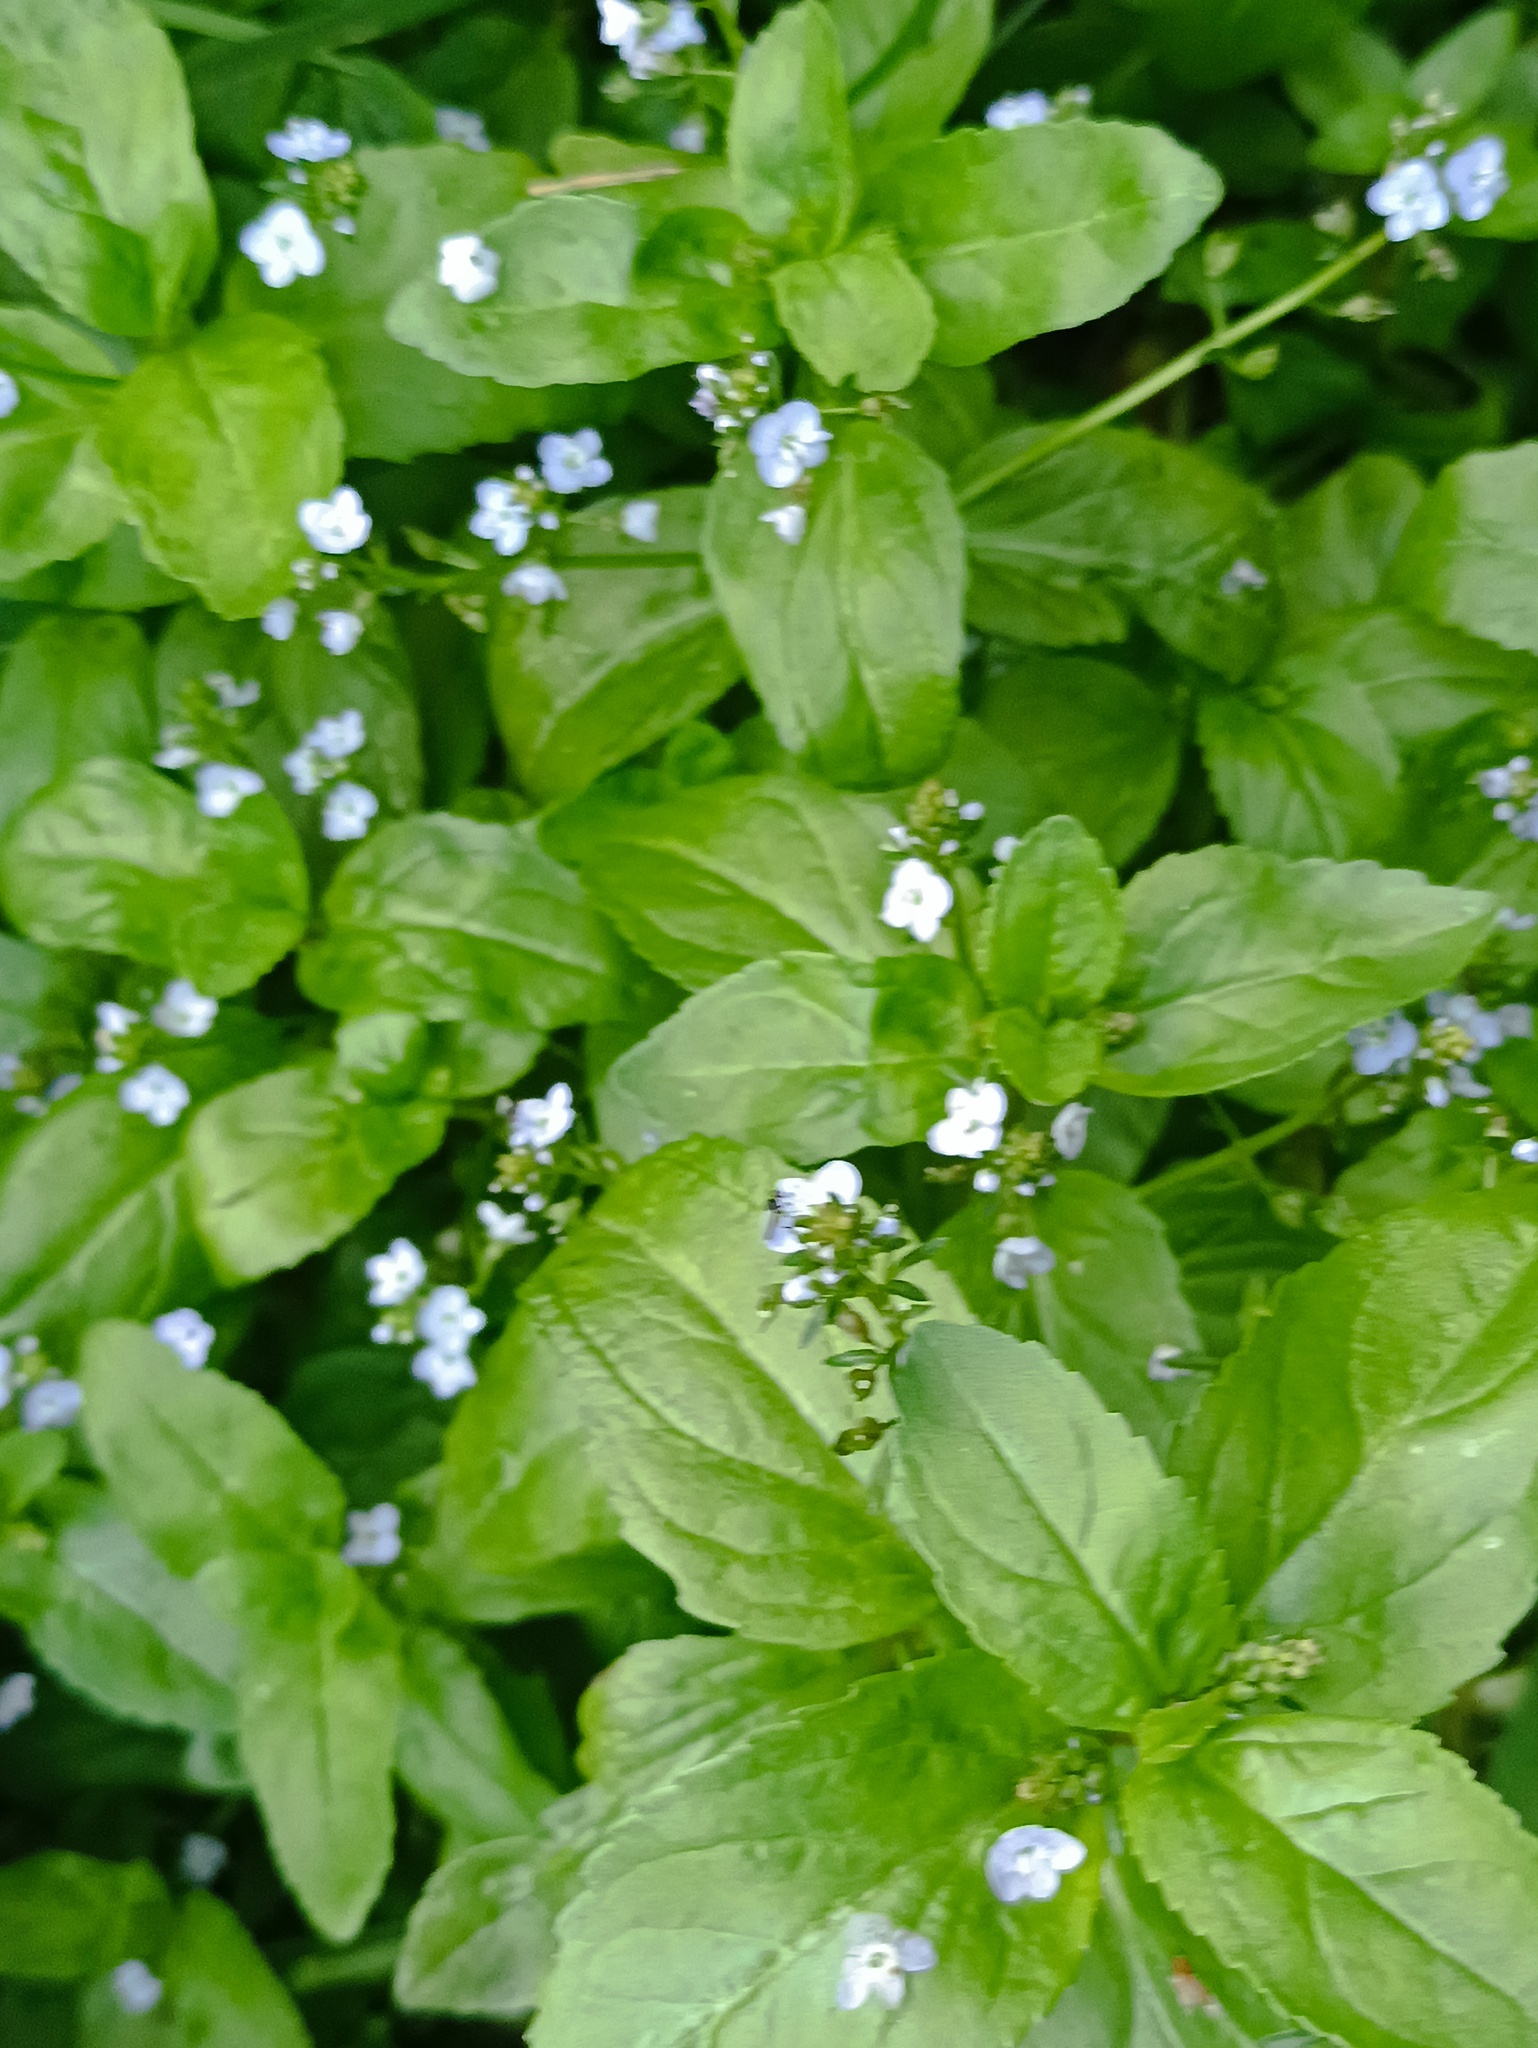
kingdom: Plantae
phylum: Tracheophyta
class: Magnoliopsida
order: Lamiales
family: Plantaginaceae
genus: Veronica
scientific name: Veronica beccabunga
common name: Brooklime
